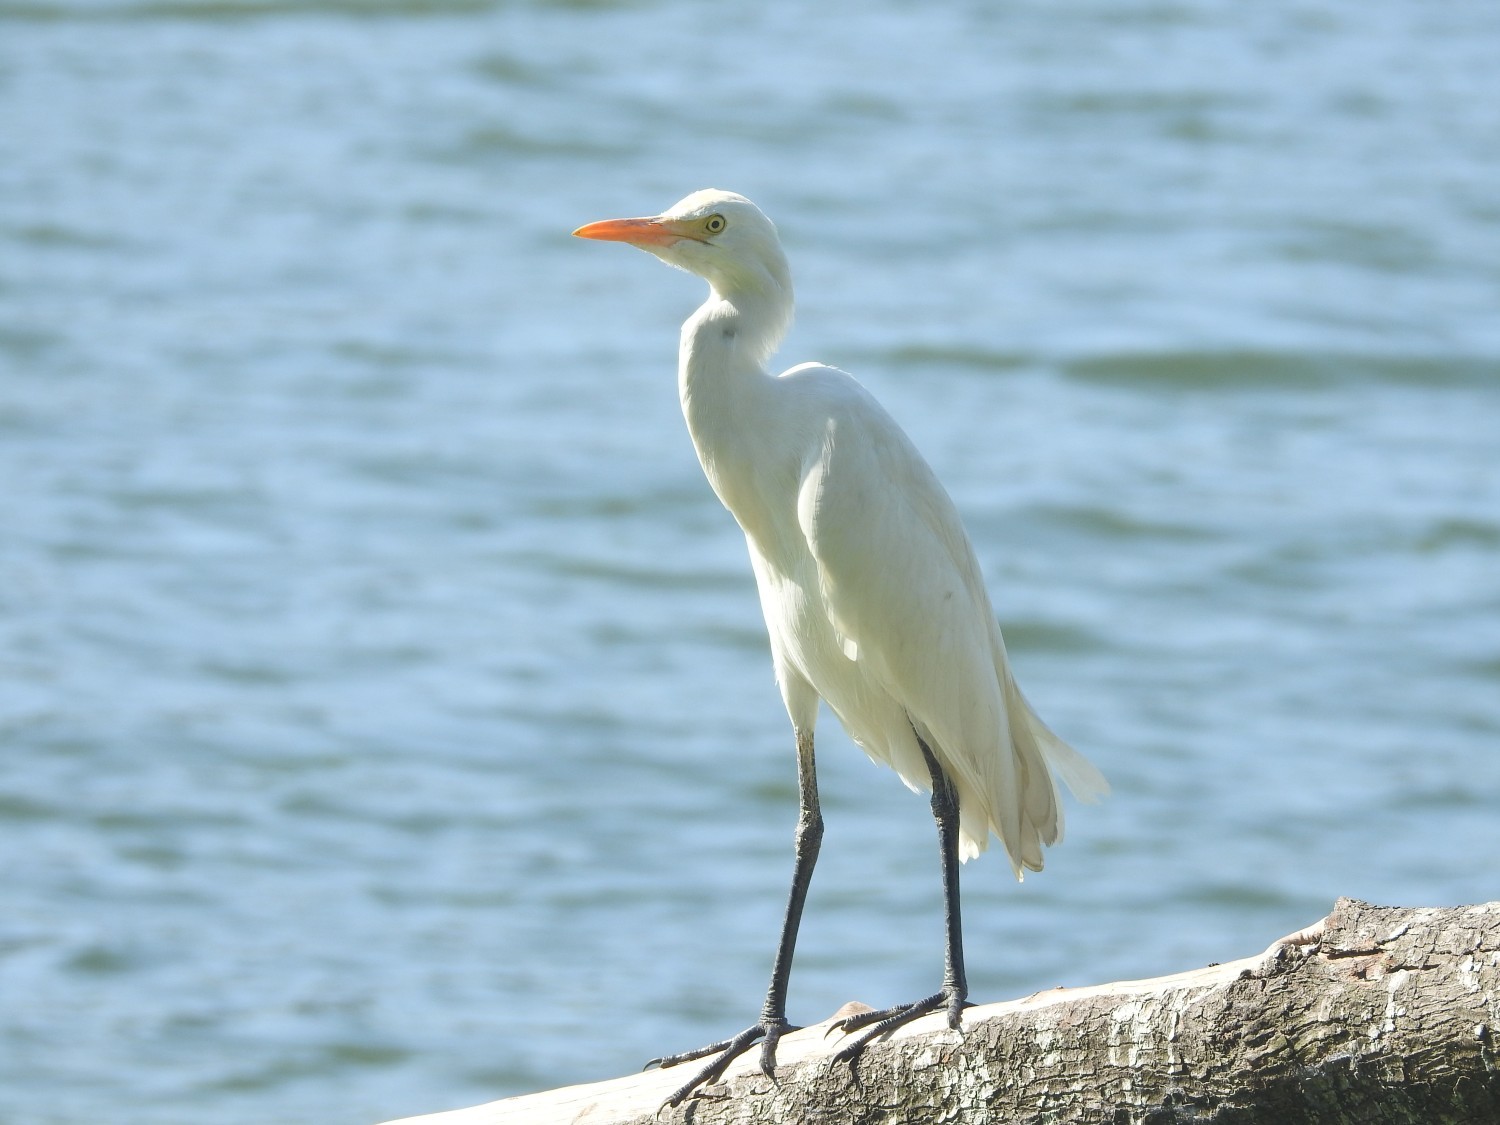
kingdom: Animalia
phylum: Chordata
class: Aves
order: Pelecaniformes
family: Ardeidae
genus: Bubulcus
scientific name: Bubulcus coromandus
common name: Eastern cattle egret
